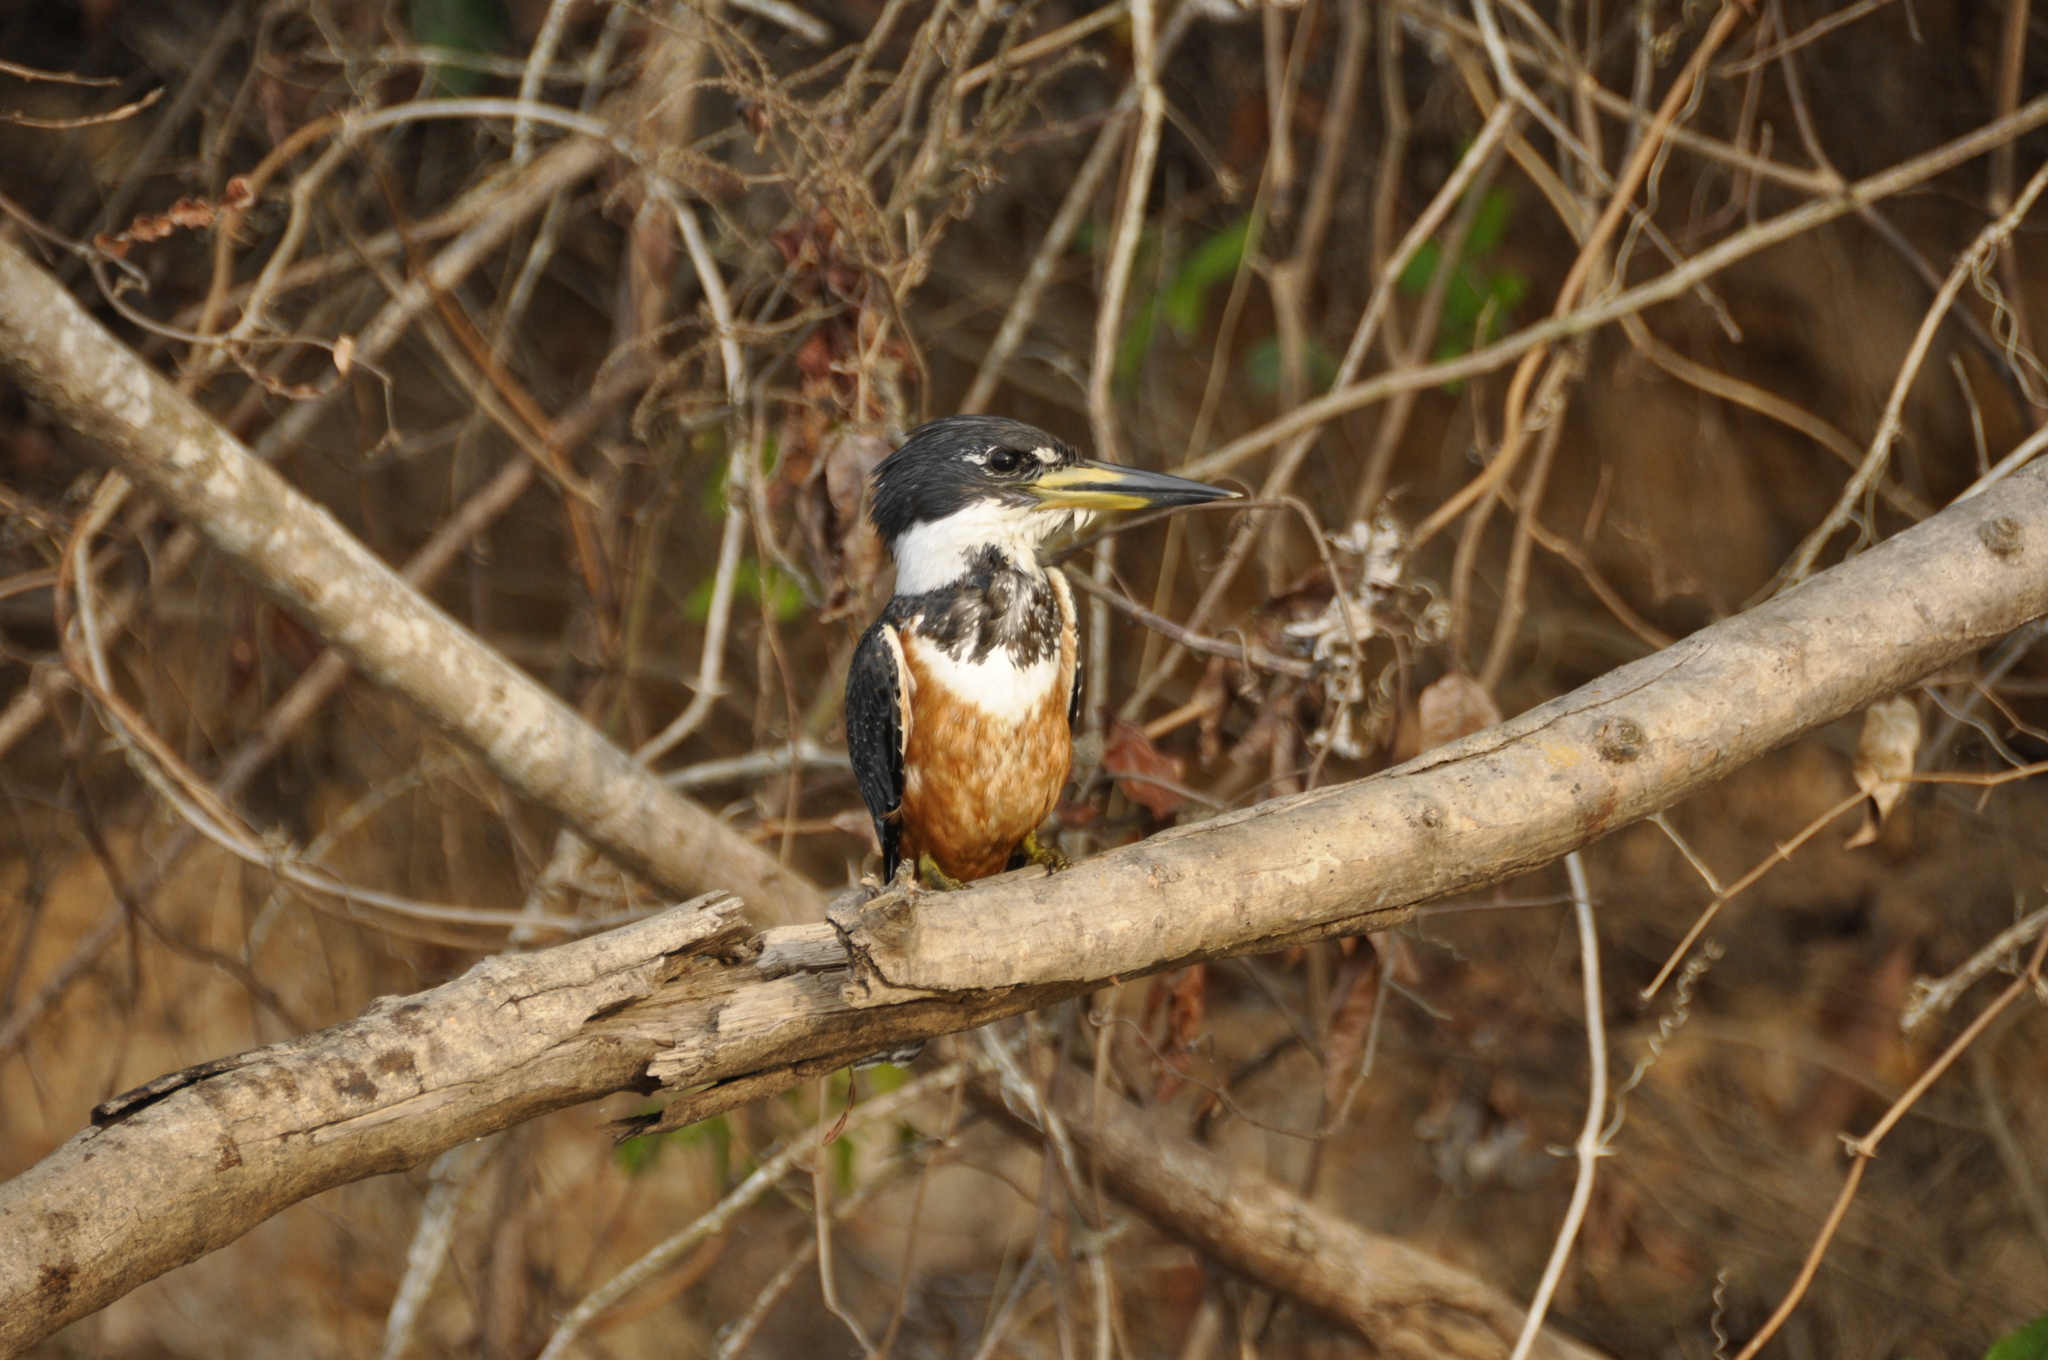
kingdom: Animalia
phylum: Chordata
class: Aves
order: Coraciiformes
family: Alcedinidae
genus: Megaceryle
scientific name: Megaceryle torquata
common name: Ringed kingfisher
